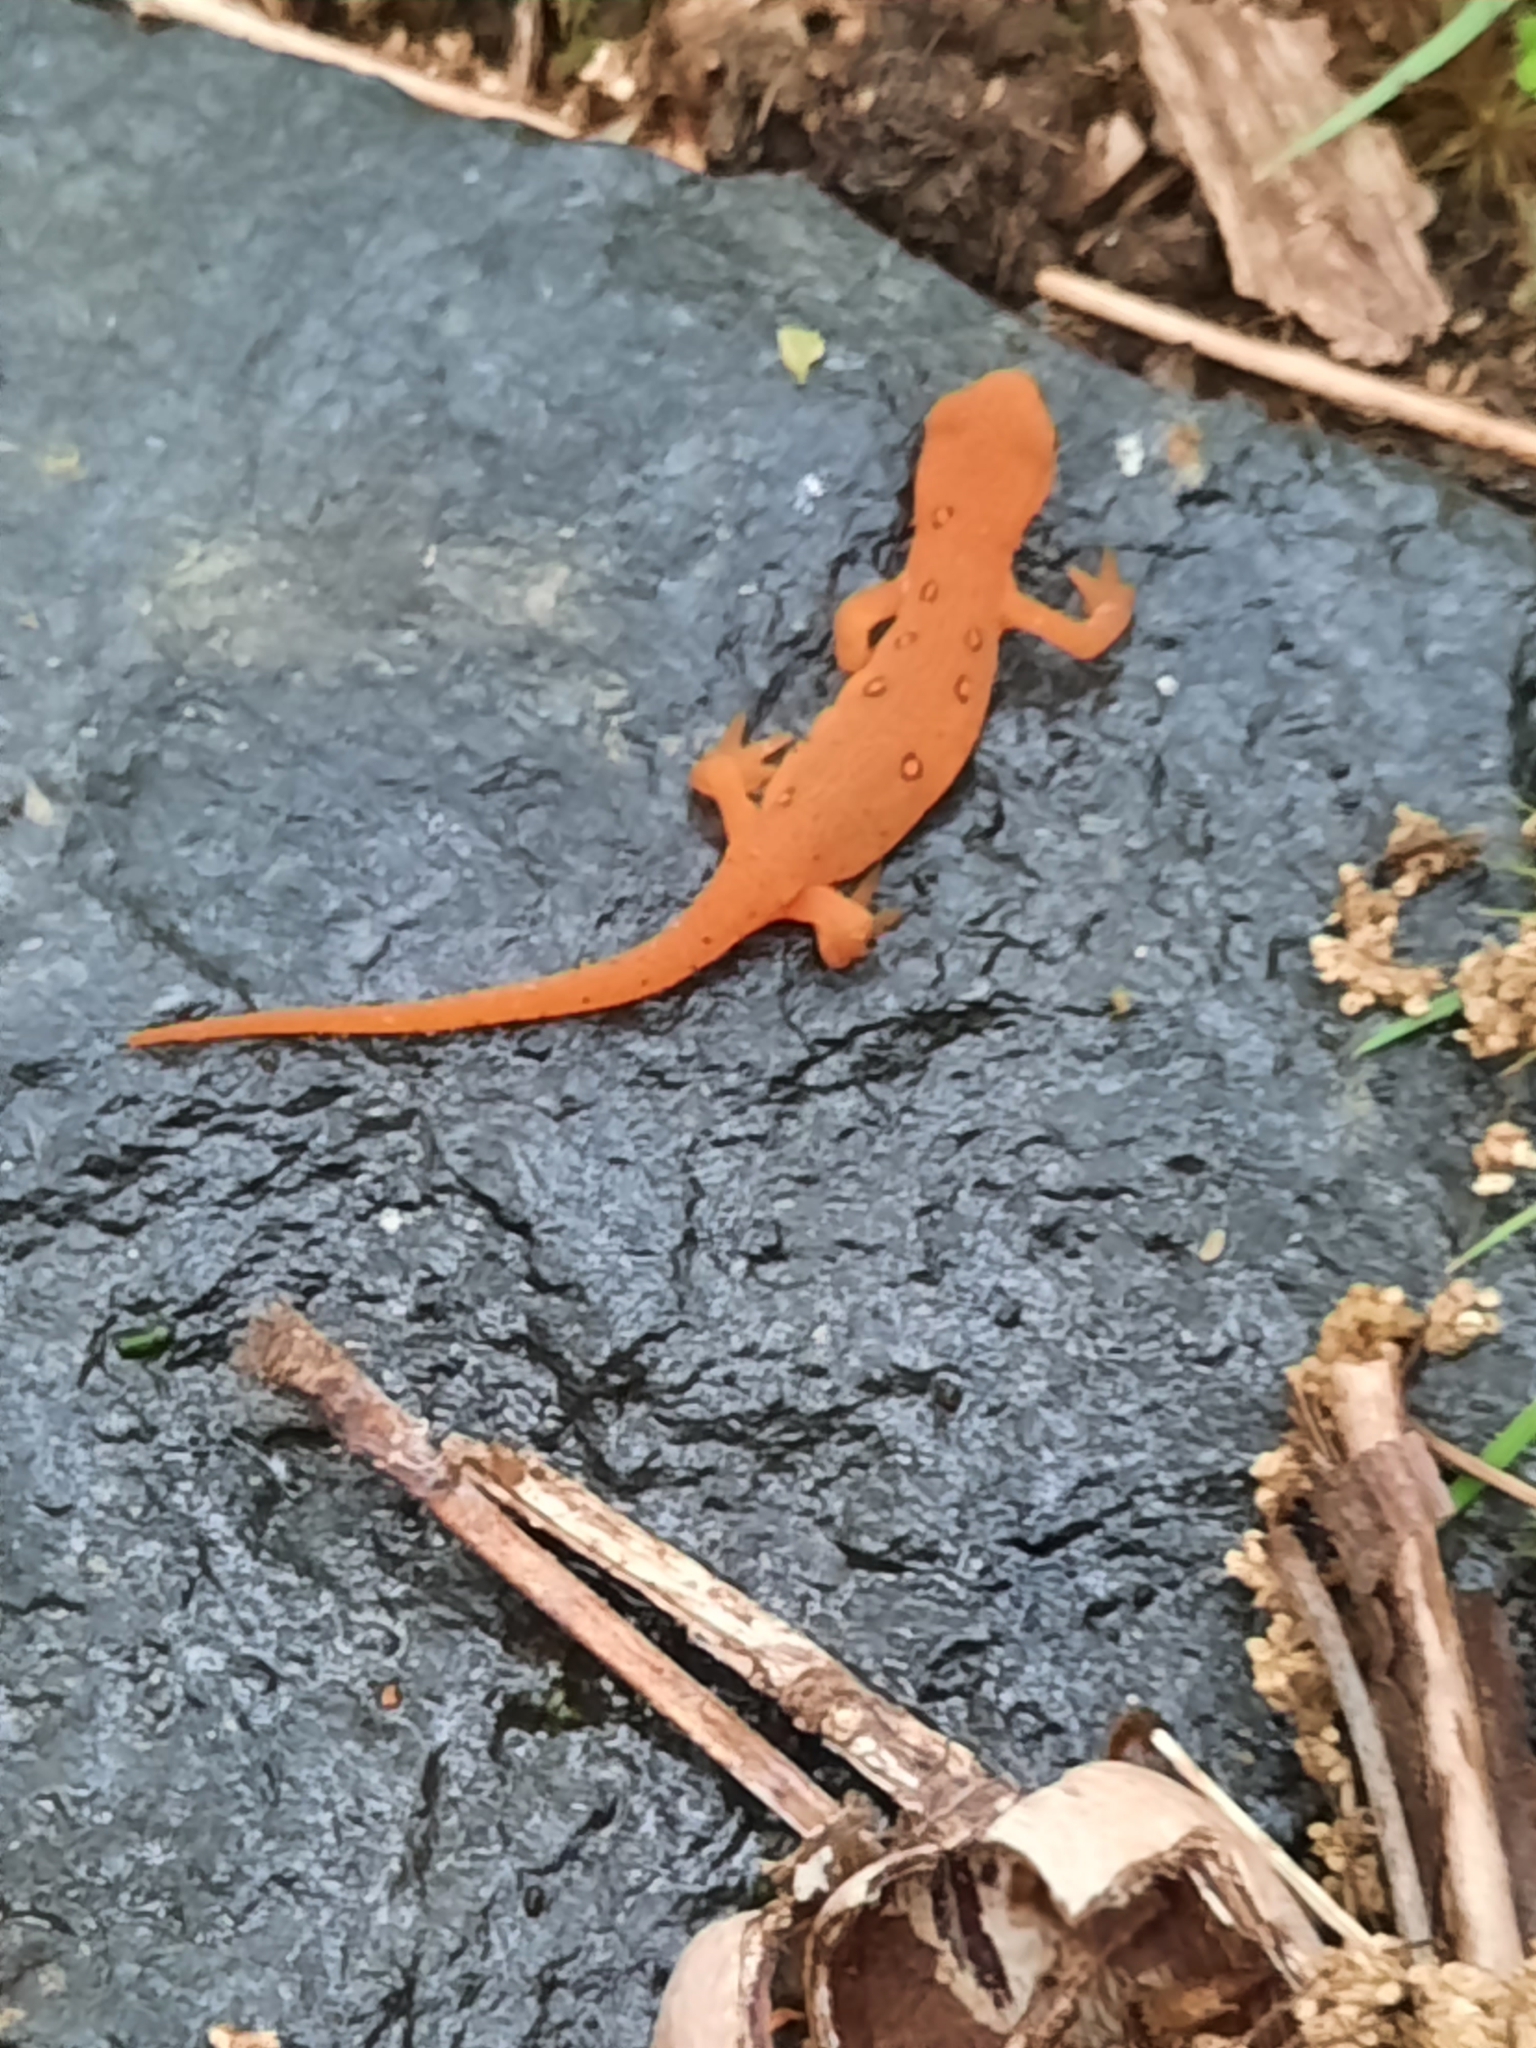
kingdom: Animalia
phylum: Chordata
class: Amphibia
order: Caudata
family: Salamandridae
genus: Notophthalmus
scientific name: Notophthalmus viridescens
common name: Eastern newt
